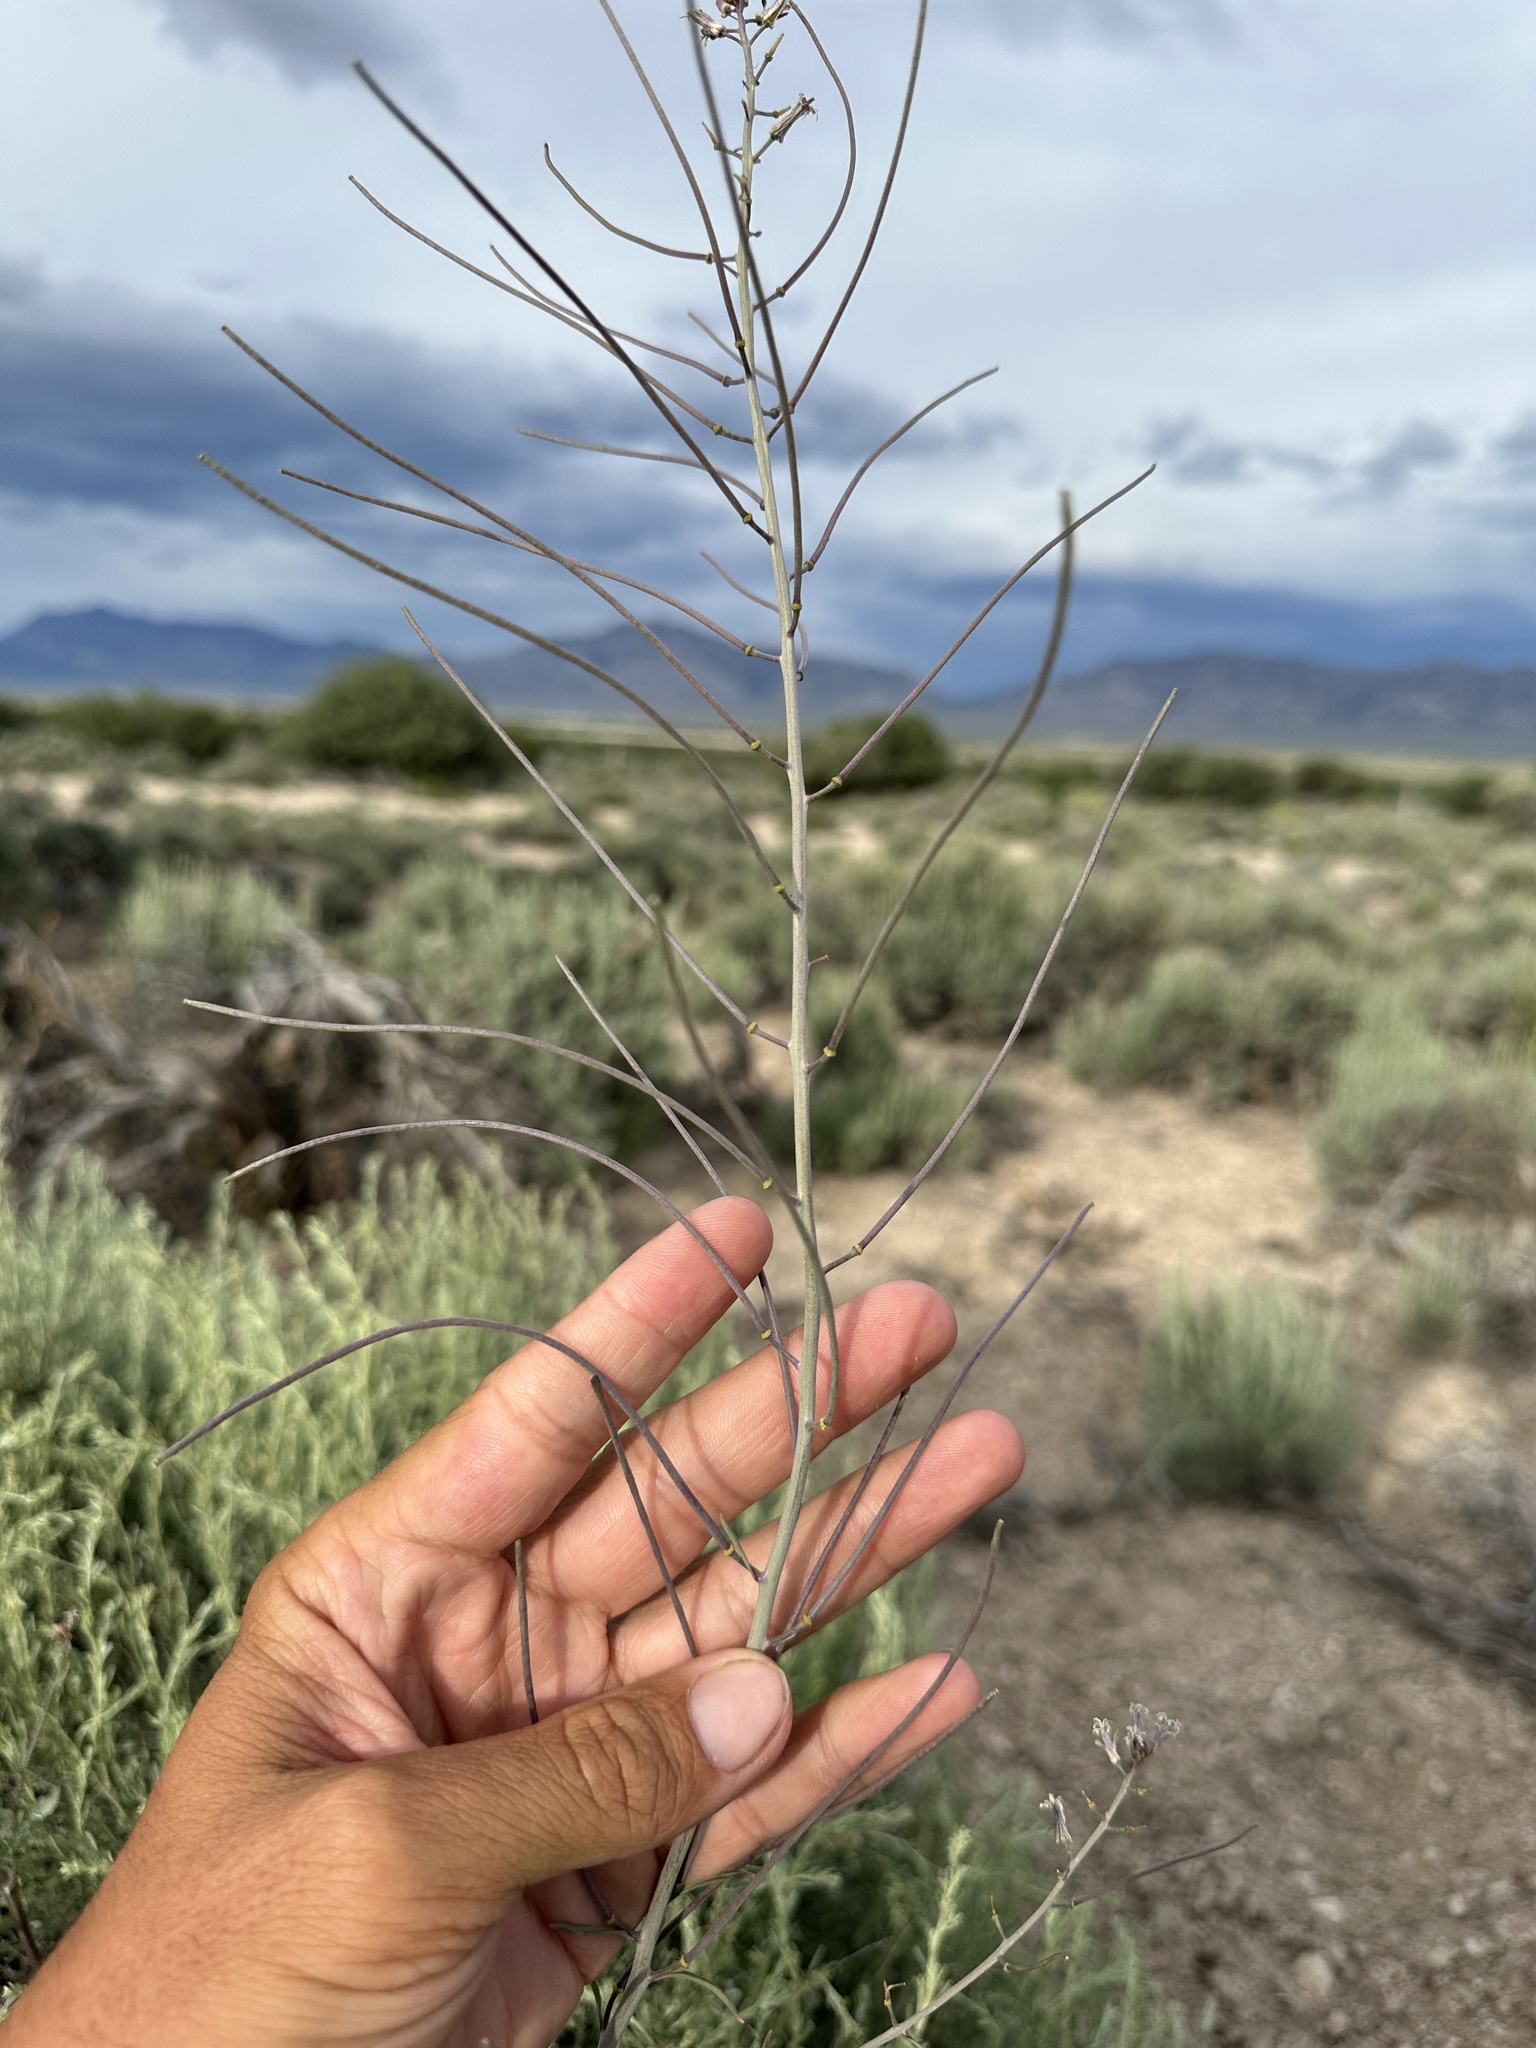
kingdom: Plantae
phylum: Tracheophyta
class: Magnoliopsida
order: Brassicales
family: Brassicaceae
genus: Streptanthus
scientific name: Streptanthus pilosus
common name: Chocolate drops
